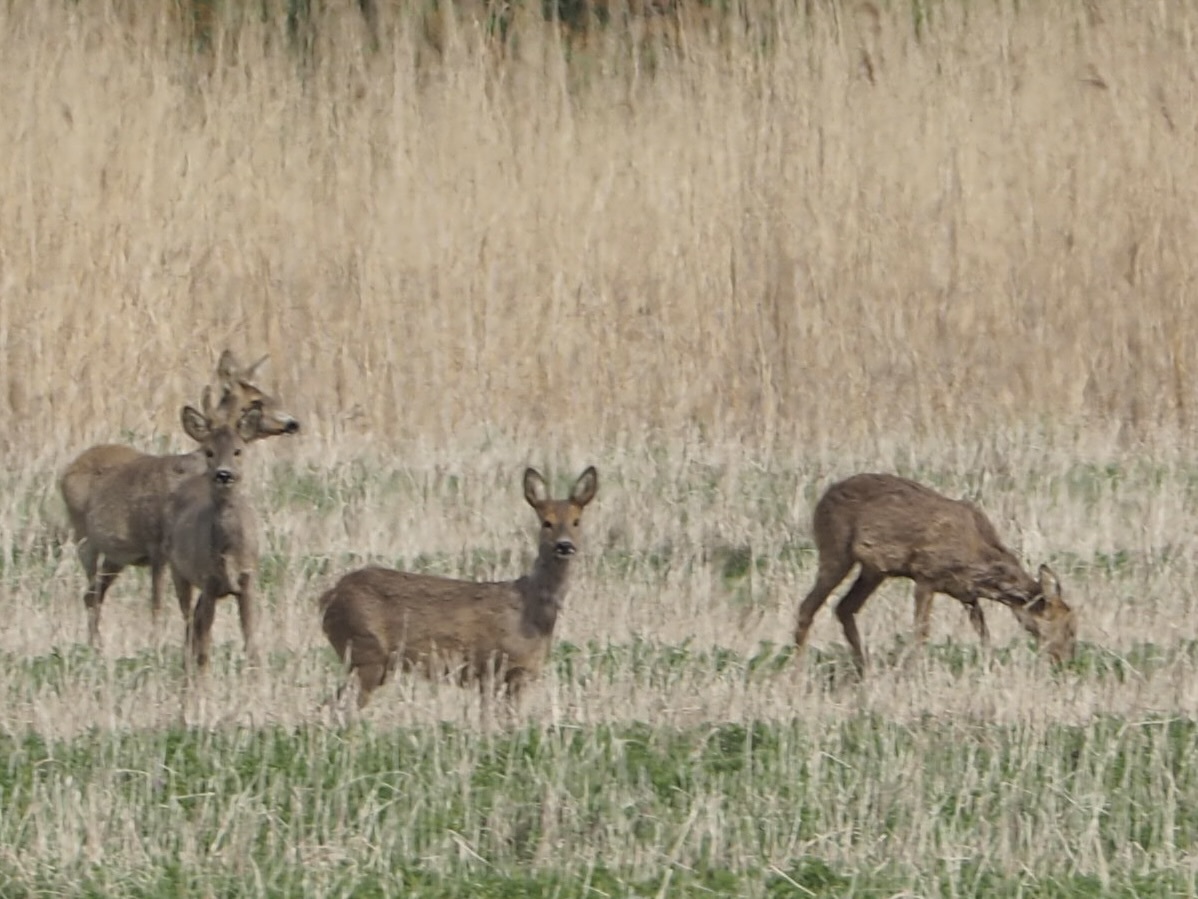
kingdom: Animalia
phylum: Chordata
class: Mammalia
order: Artiodactyla
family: Cervidae
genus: Capreolus
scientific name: Capreolus capreolus
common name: Western roe deer
